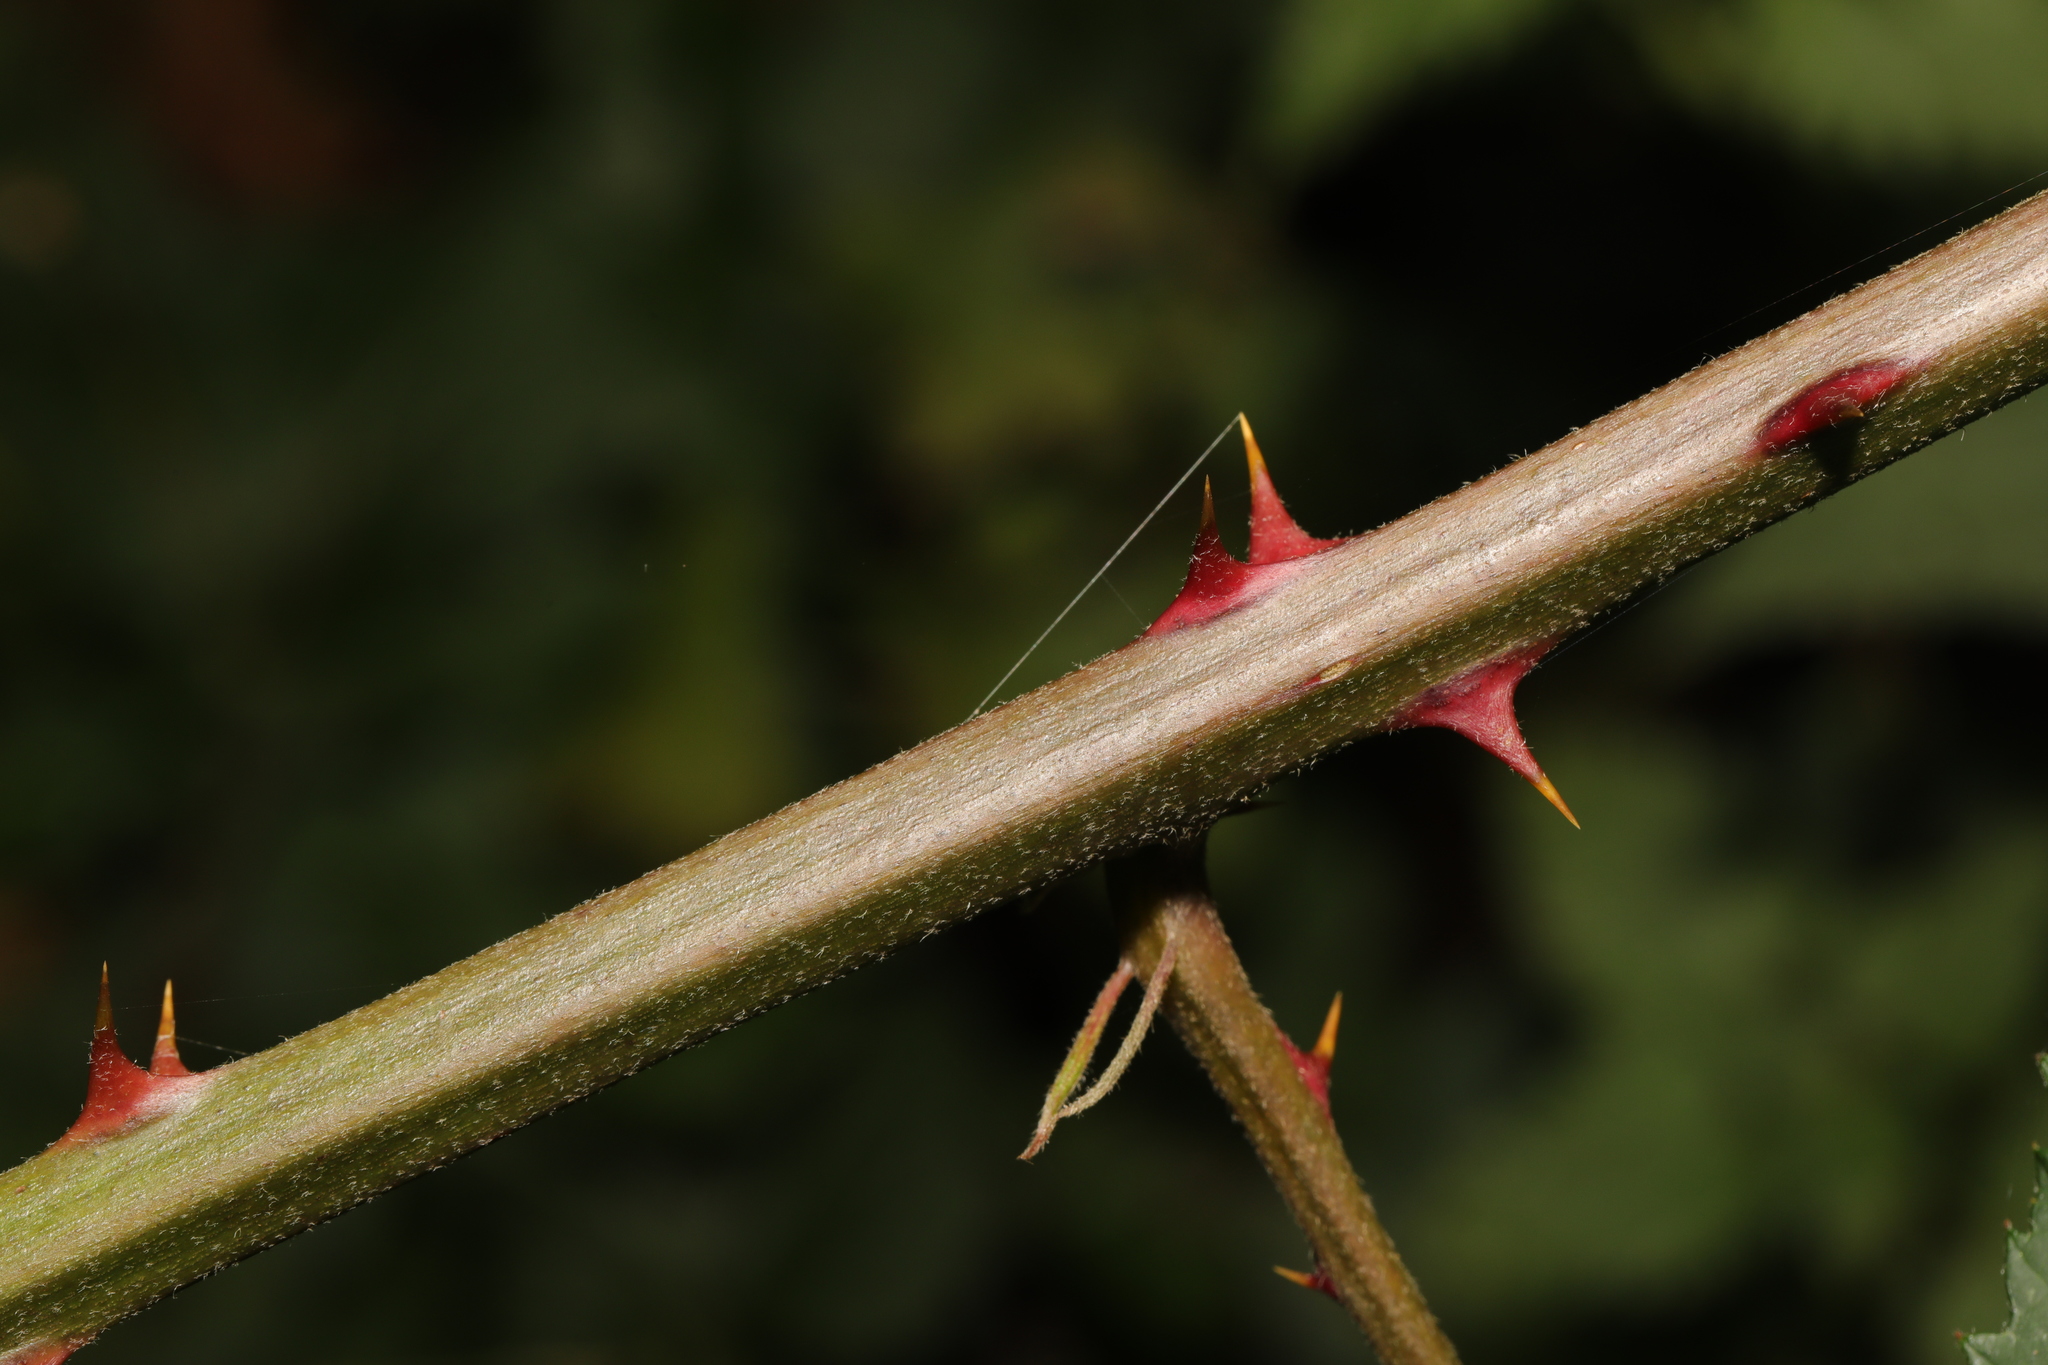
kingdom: Plantae
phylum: Tracheophyta
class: Magnoliopsida
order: Rosales
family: Rosaceae
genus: Rubus
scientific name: Rubus armeniacus
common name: Himalayan blackberry
